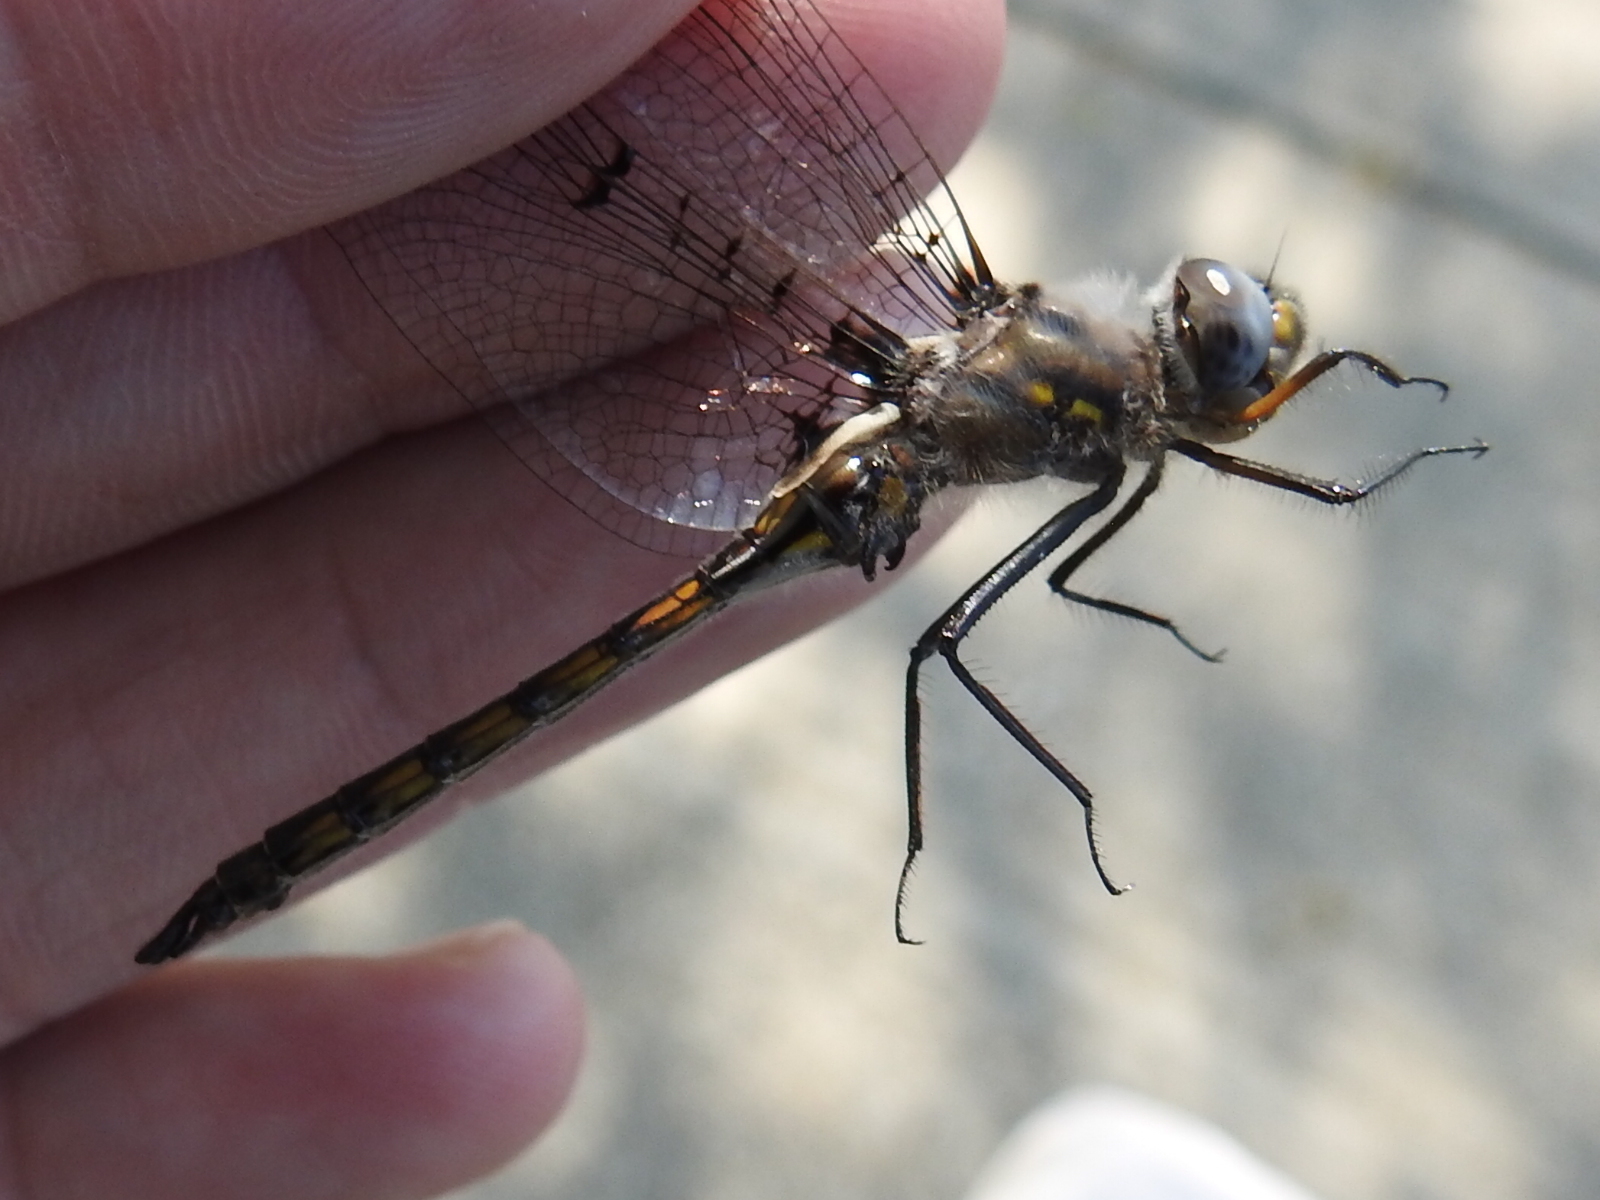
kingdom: Animalia
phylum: Arthropoda
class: Insecta
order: Odonata
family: Corduliidae
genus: Epitheca
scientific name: Epitheca petechialis
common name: Dot-winged baskettail
